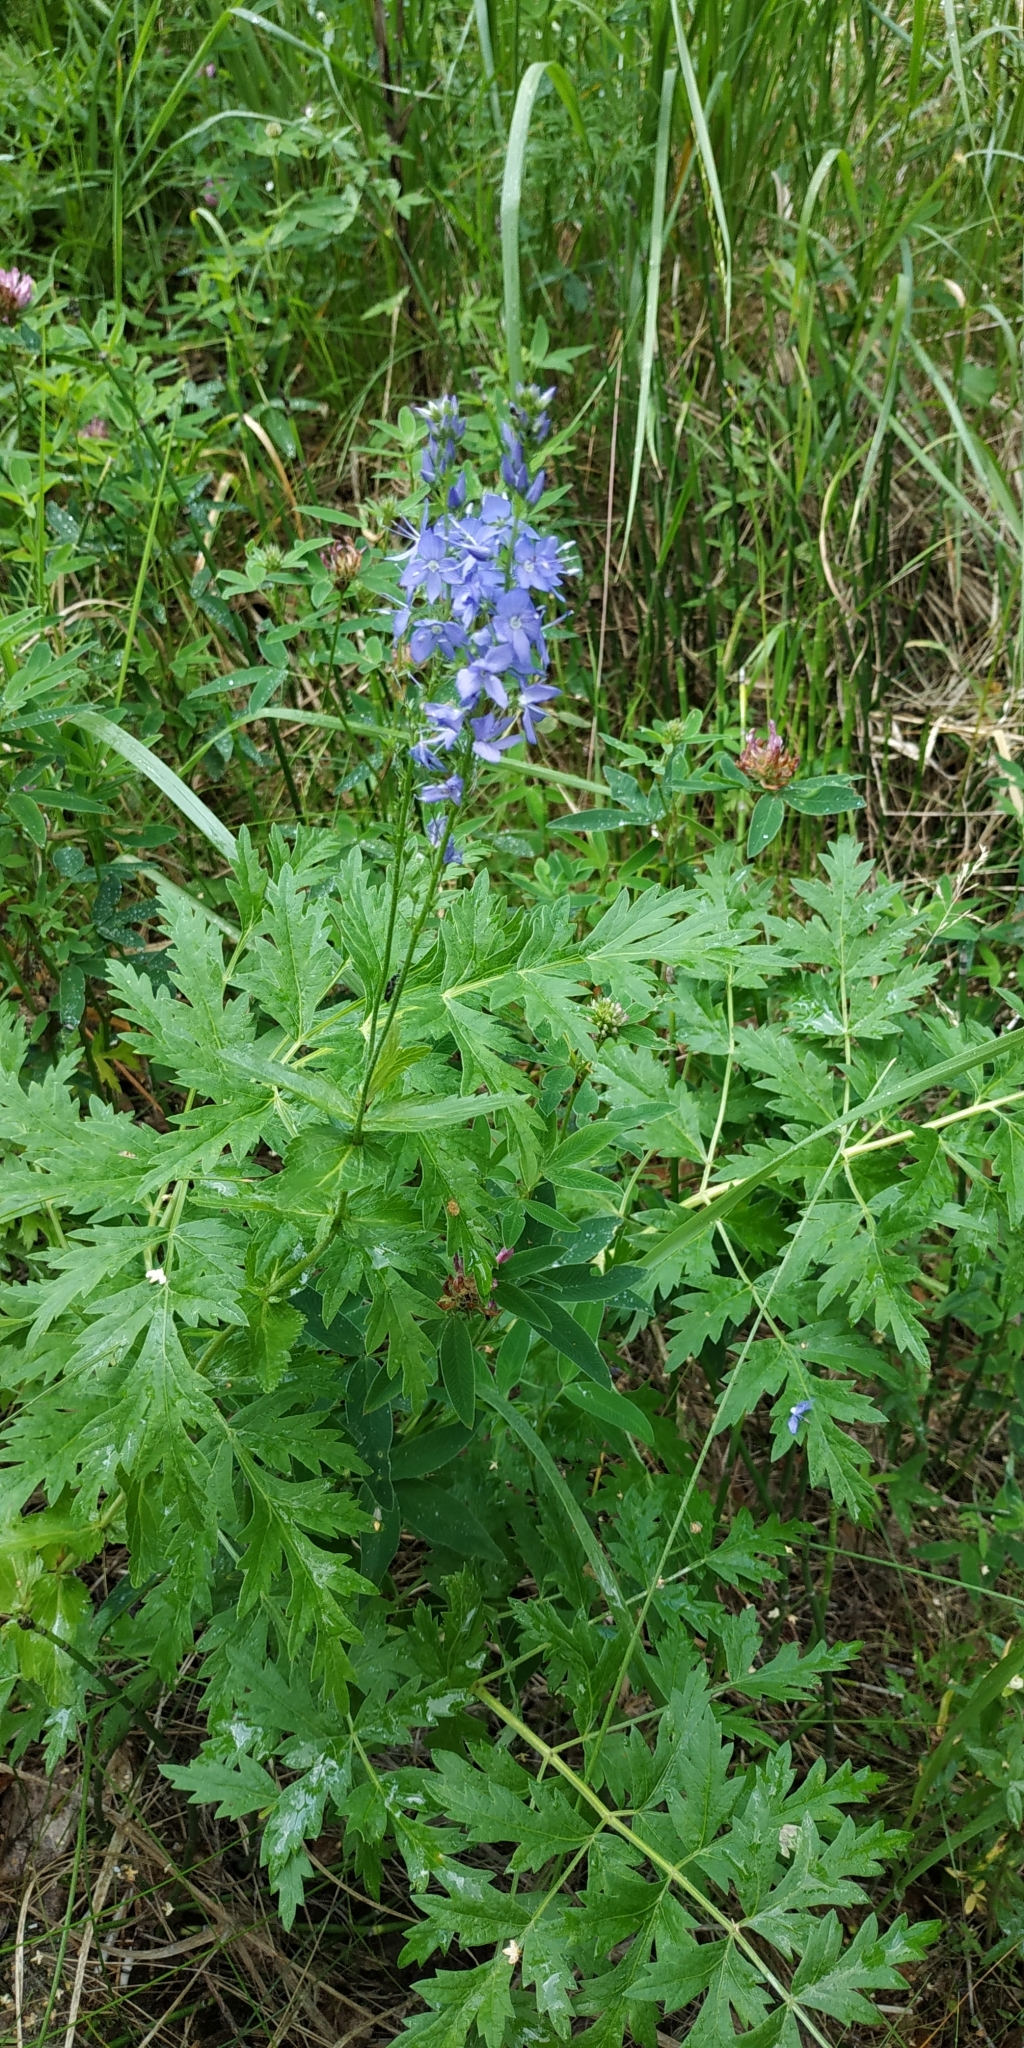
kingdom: Plantae
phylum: Tracheophyta
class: Magnoliopsida
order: Lamiales
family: Plantaginaceae
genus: Veronica
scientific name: Veronica teucrium
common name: Large speedwell
